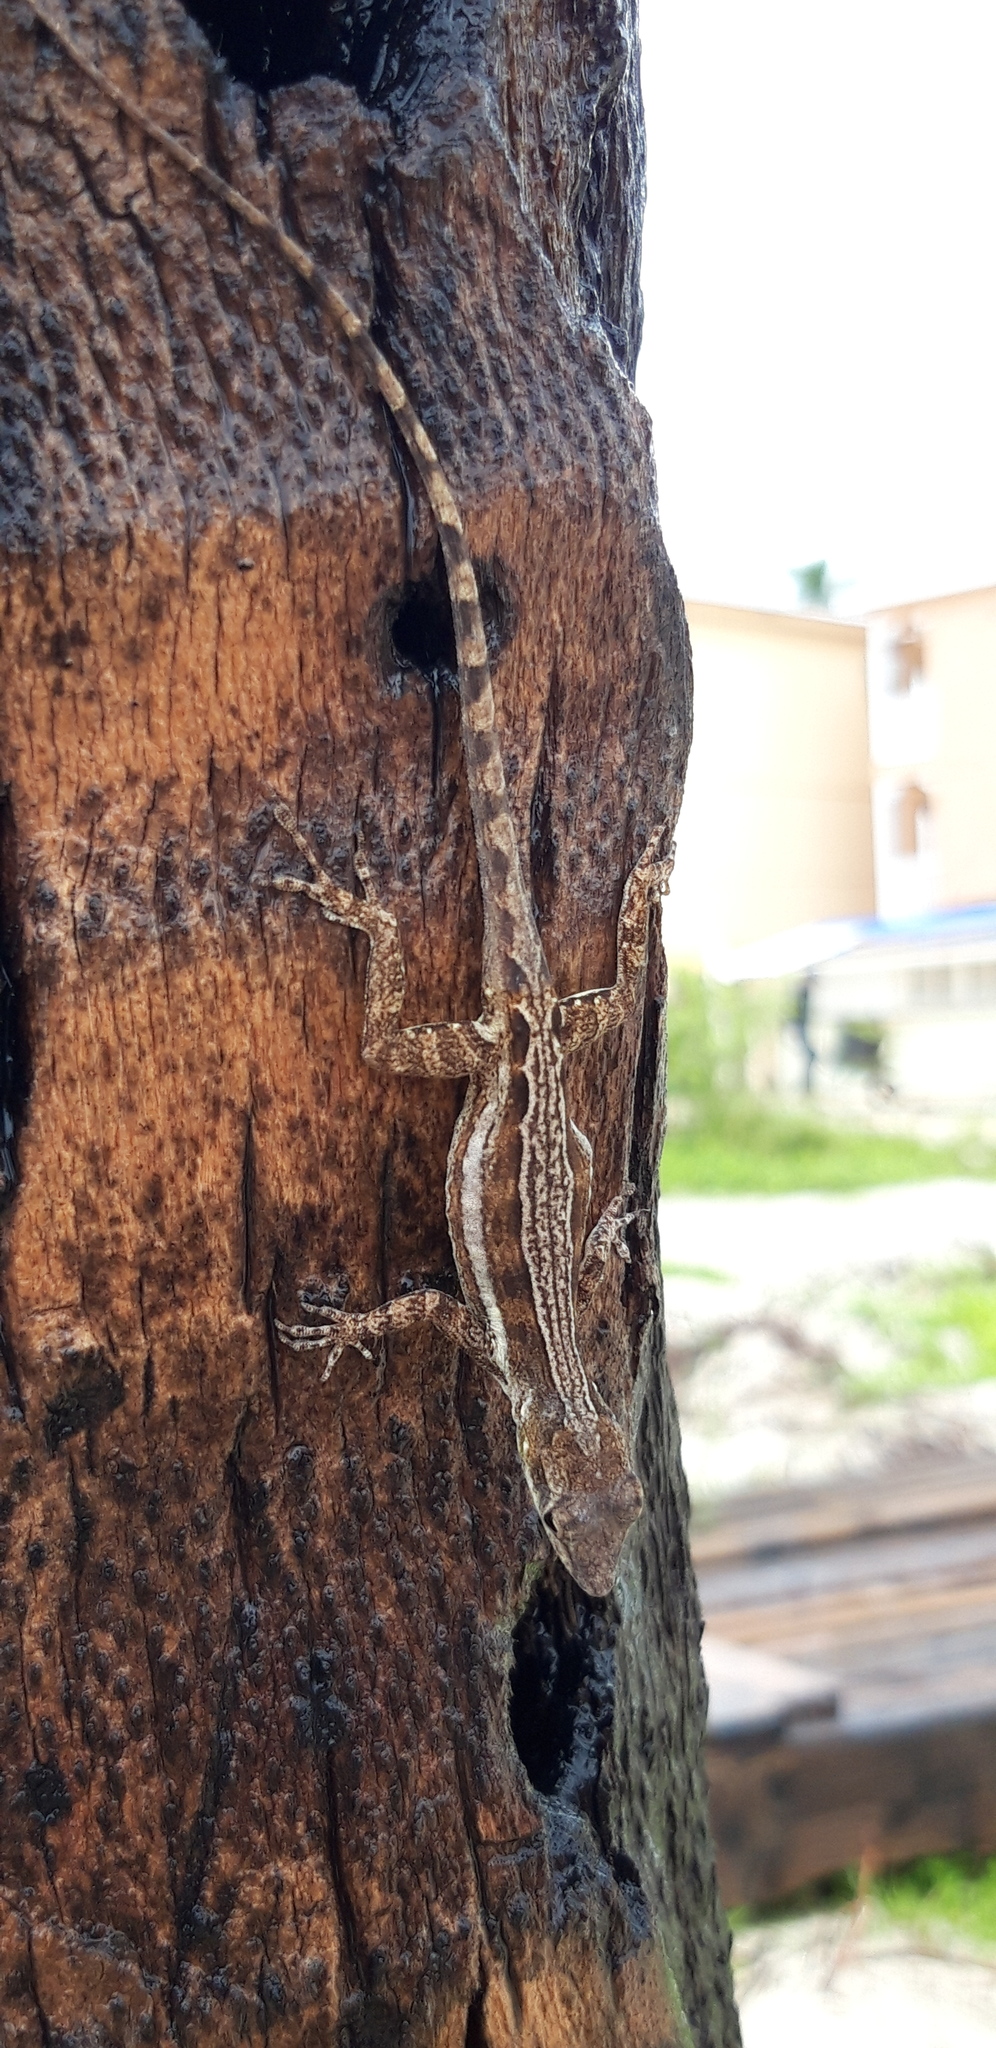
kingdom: Animalia
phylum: Chordata
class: Squamata
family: Dactyloidae
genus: Anolis
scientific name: Anolis gingivinus
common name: Anguilla anole
